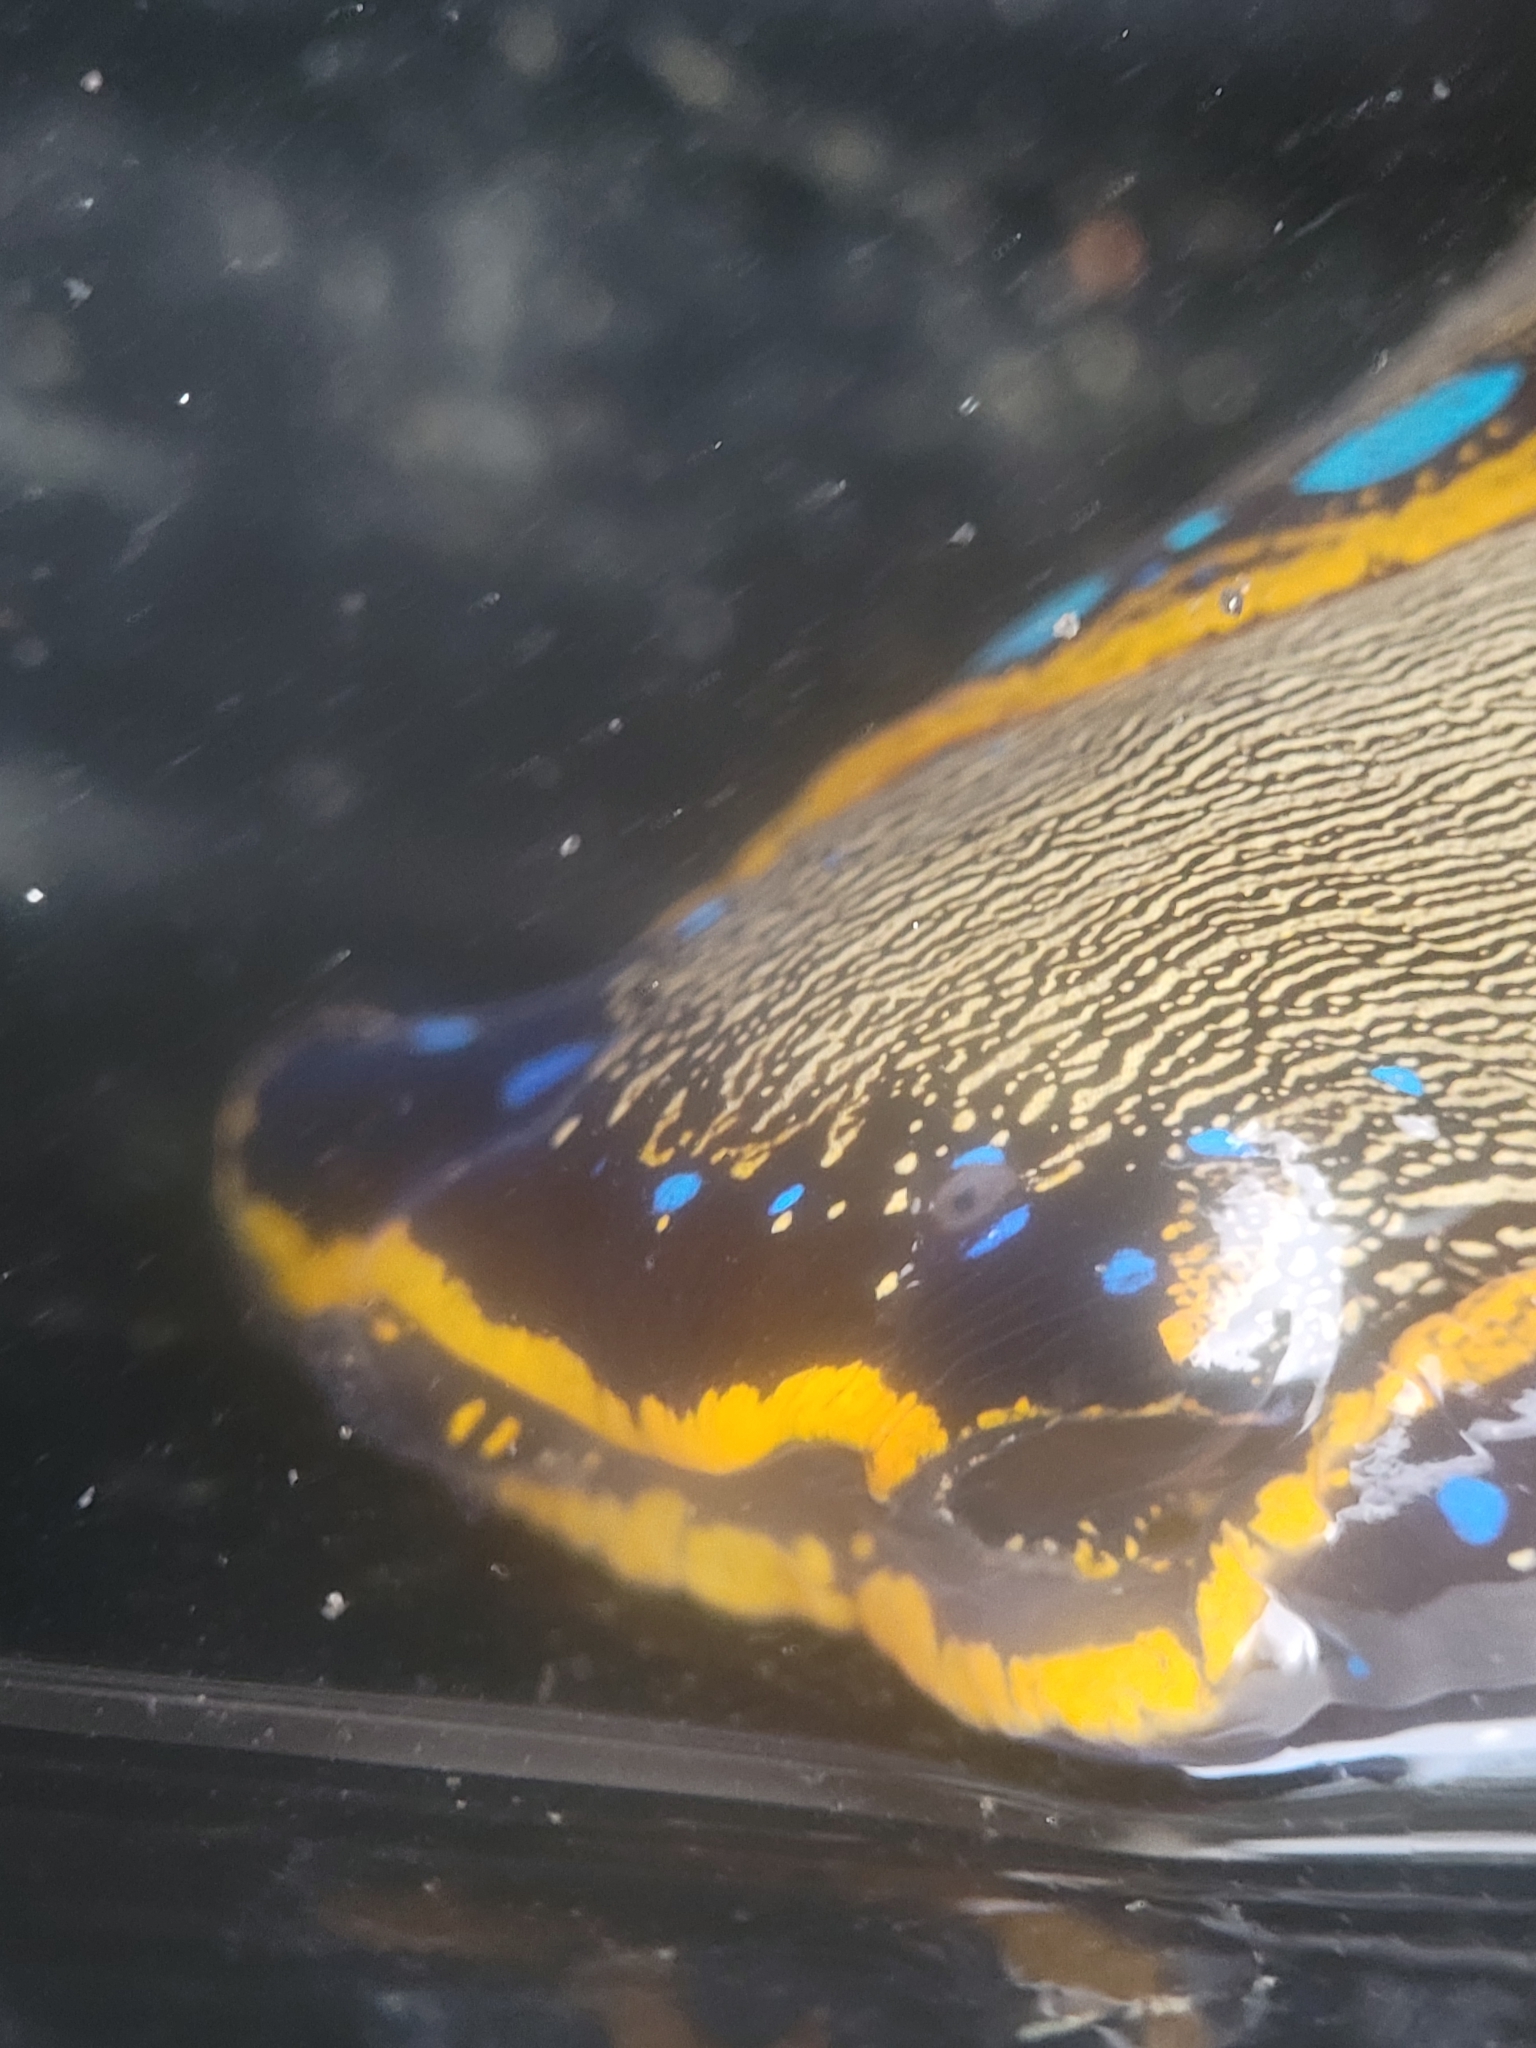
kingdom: Animalia
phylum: Mollusca
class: Gastropoda
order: Cephalaspidea
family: Aglajidae
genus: Navanax
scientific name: Navanax inermis
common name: California aglaja
